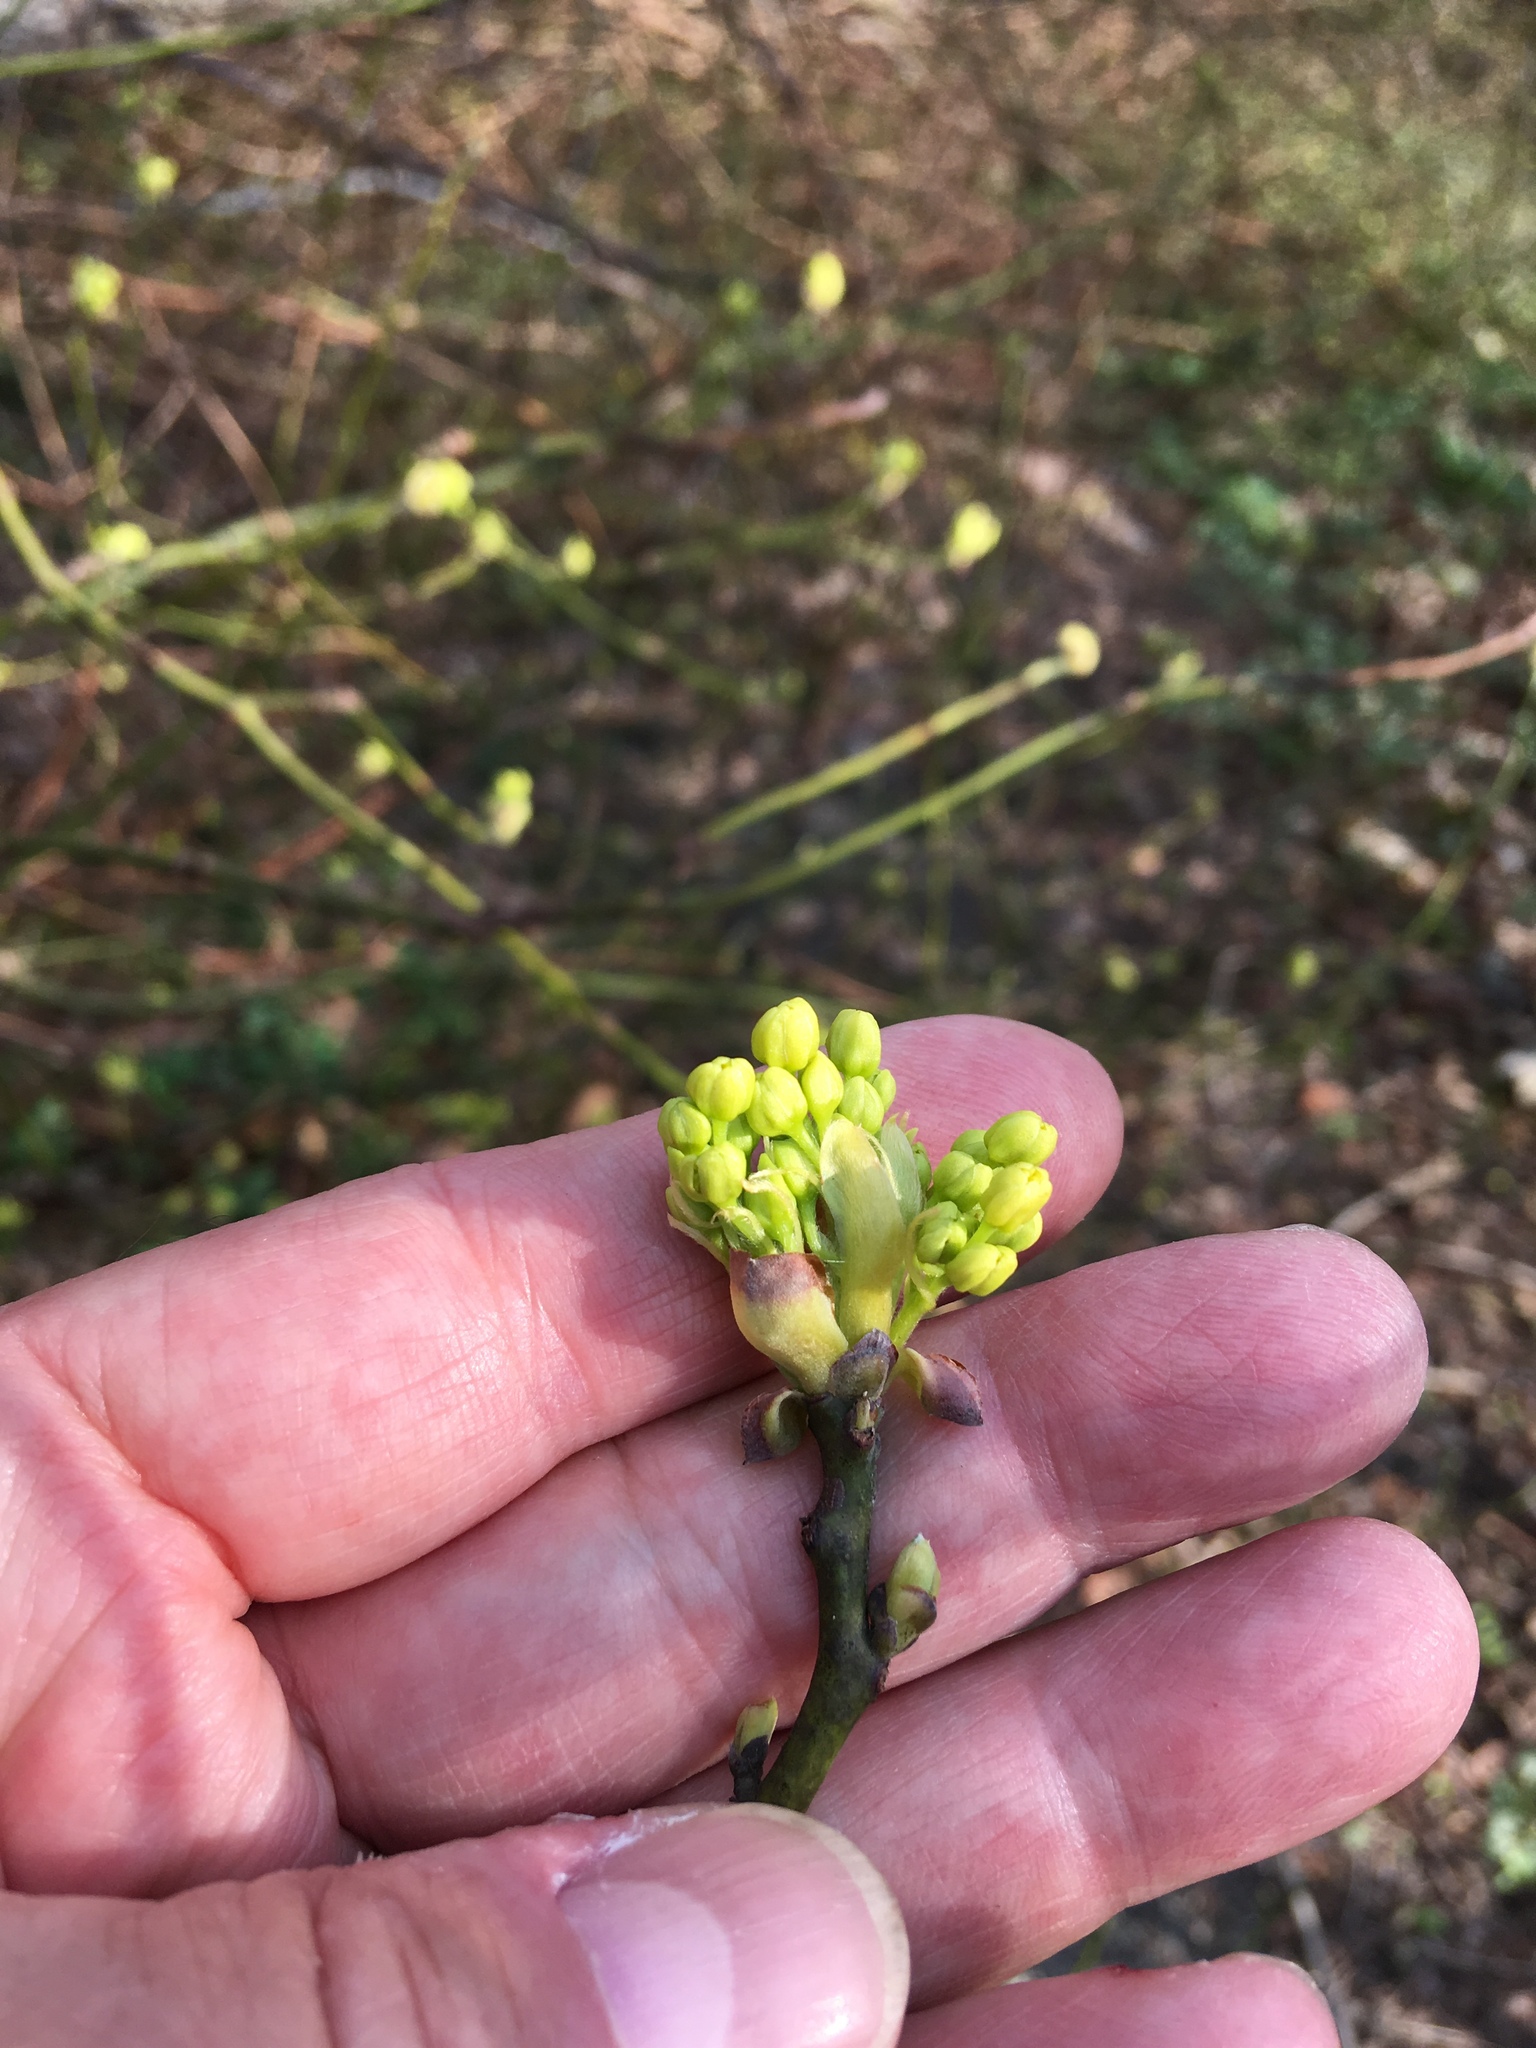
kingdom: Plantae
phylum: Tracheophyta
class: Magnoliopsida
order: Laurales
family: Lauraceae
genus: Sassafras
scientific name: Sassafras albidum
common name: Sassafras
